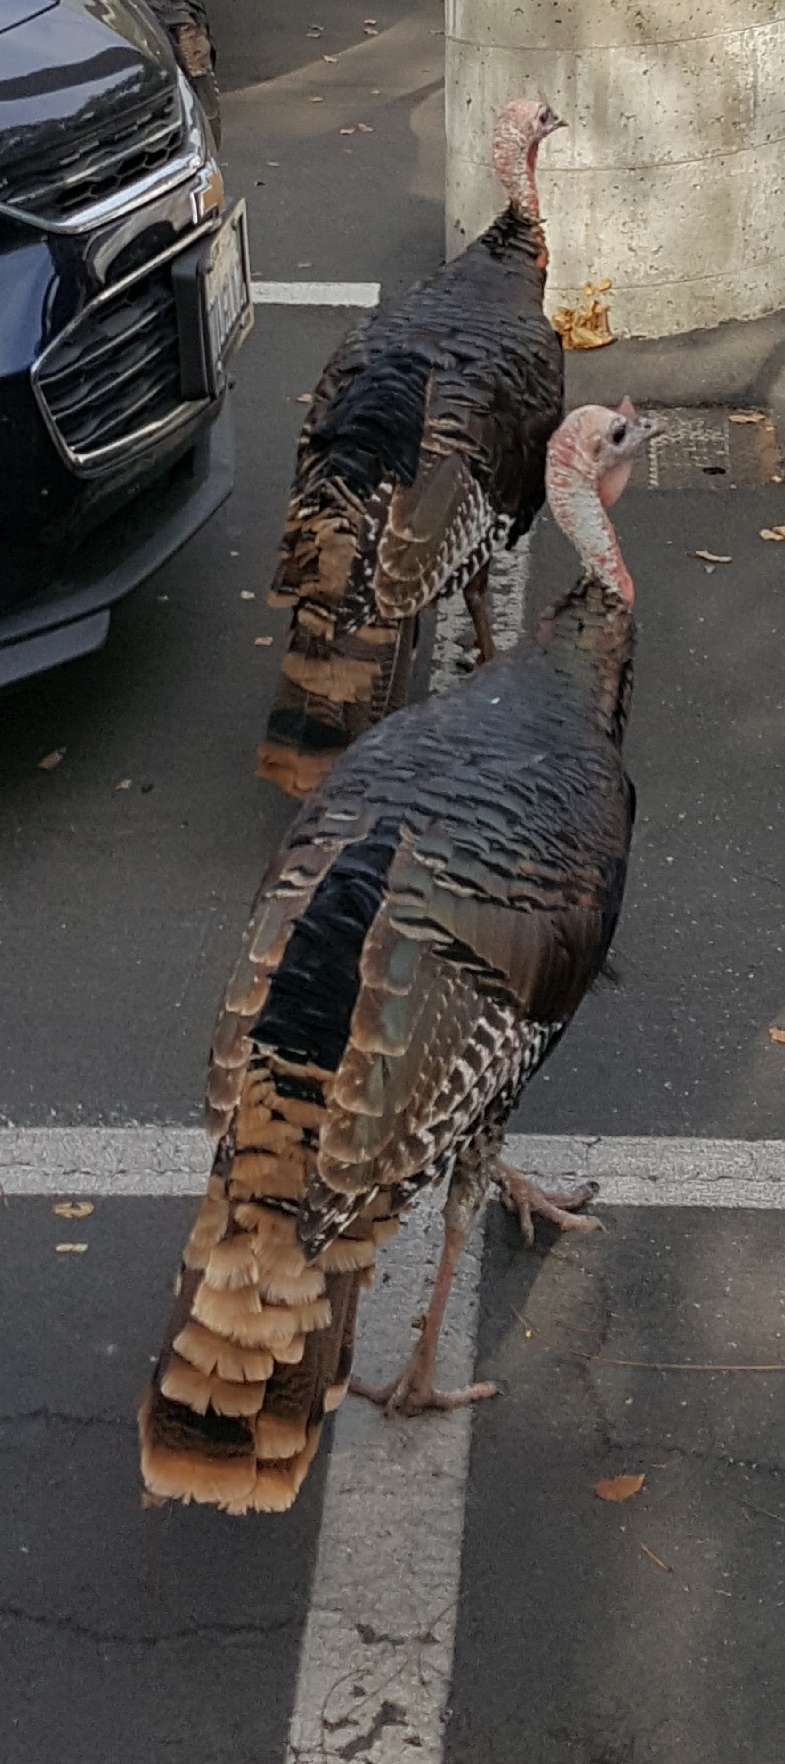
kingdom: Animalia
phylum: Chordata
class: Aves
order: Galliformes
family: Phasianidae
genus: Meleagris
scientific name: Meleagris gallopavo
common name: Wild turkey
